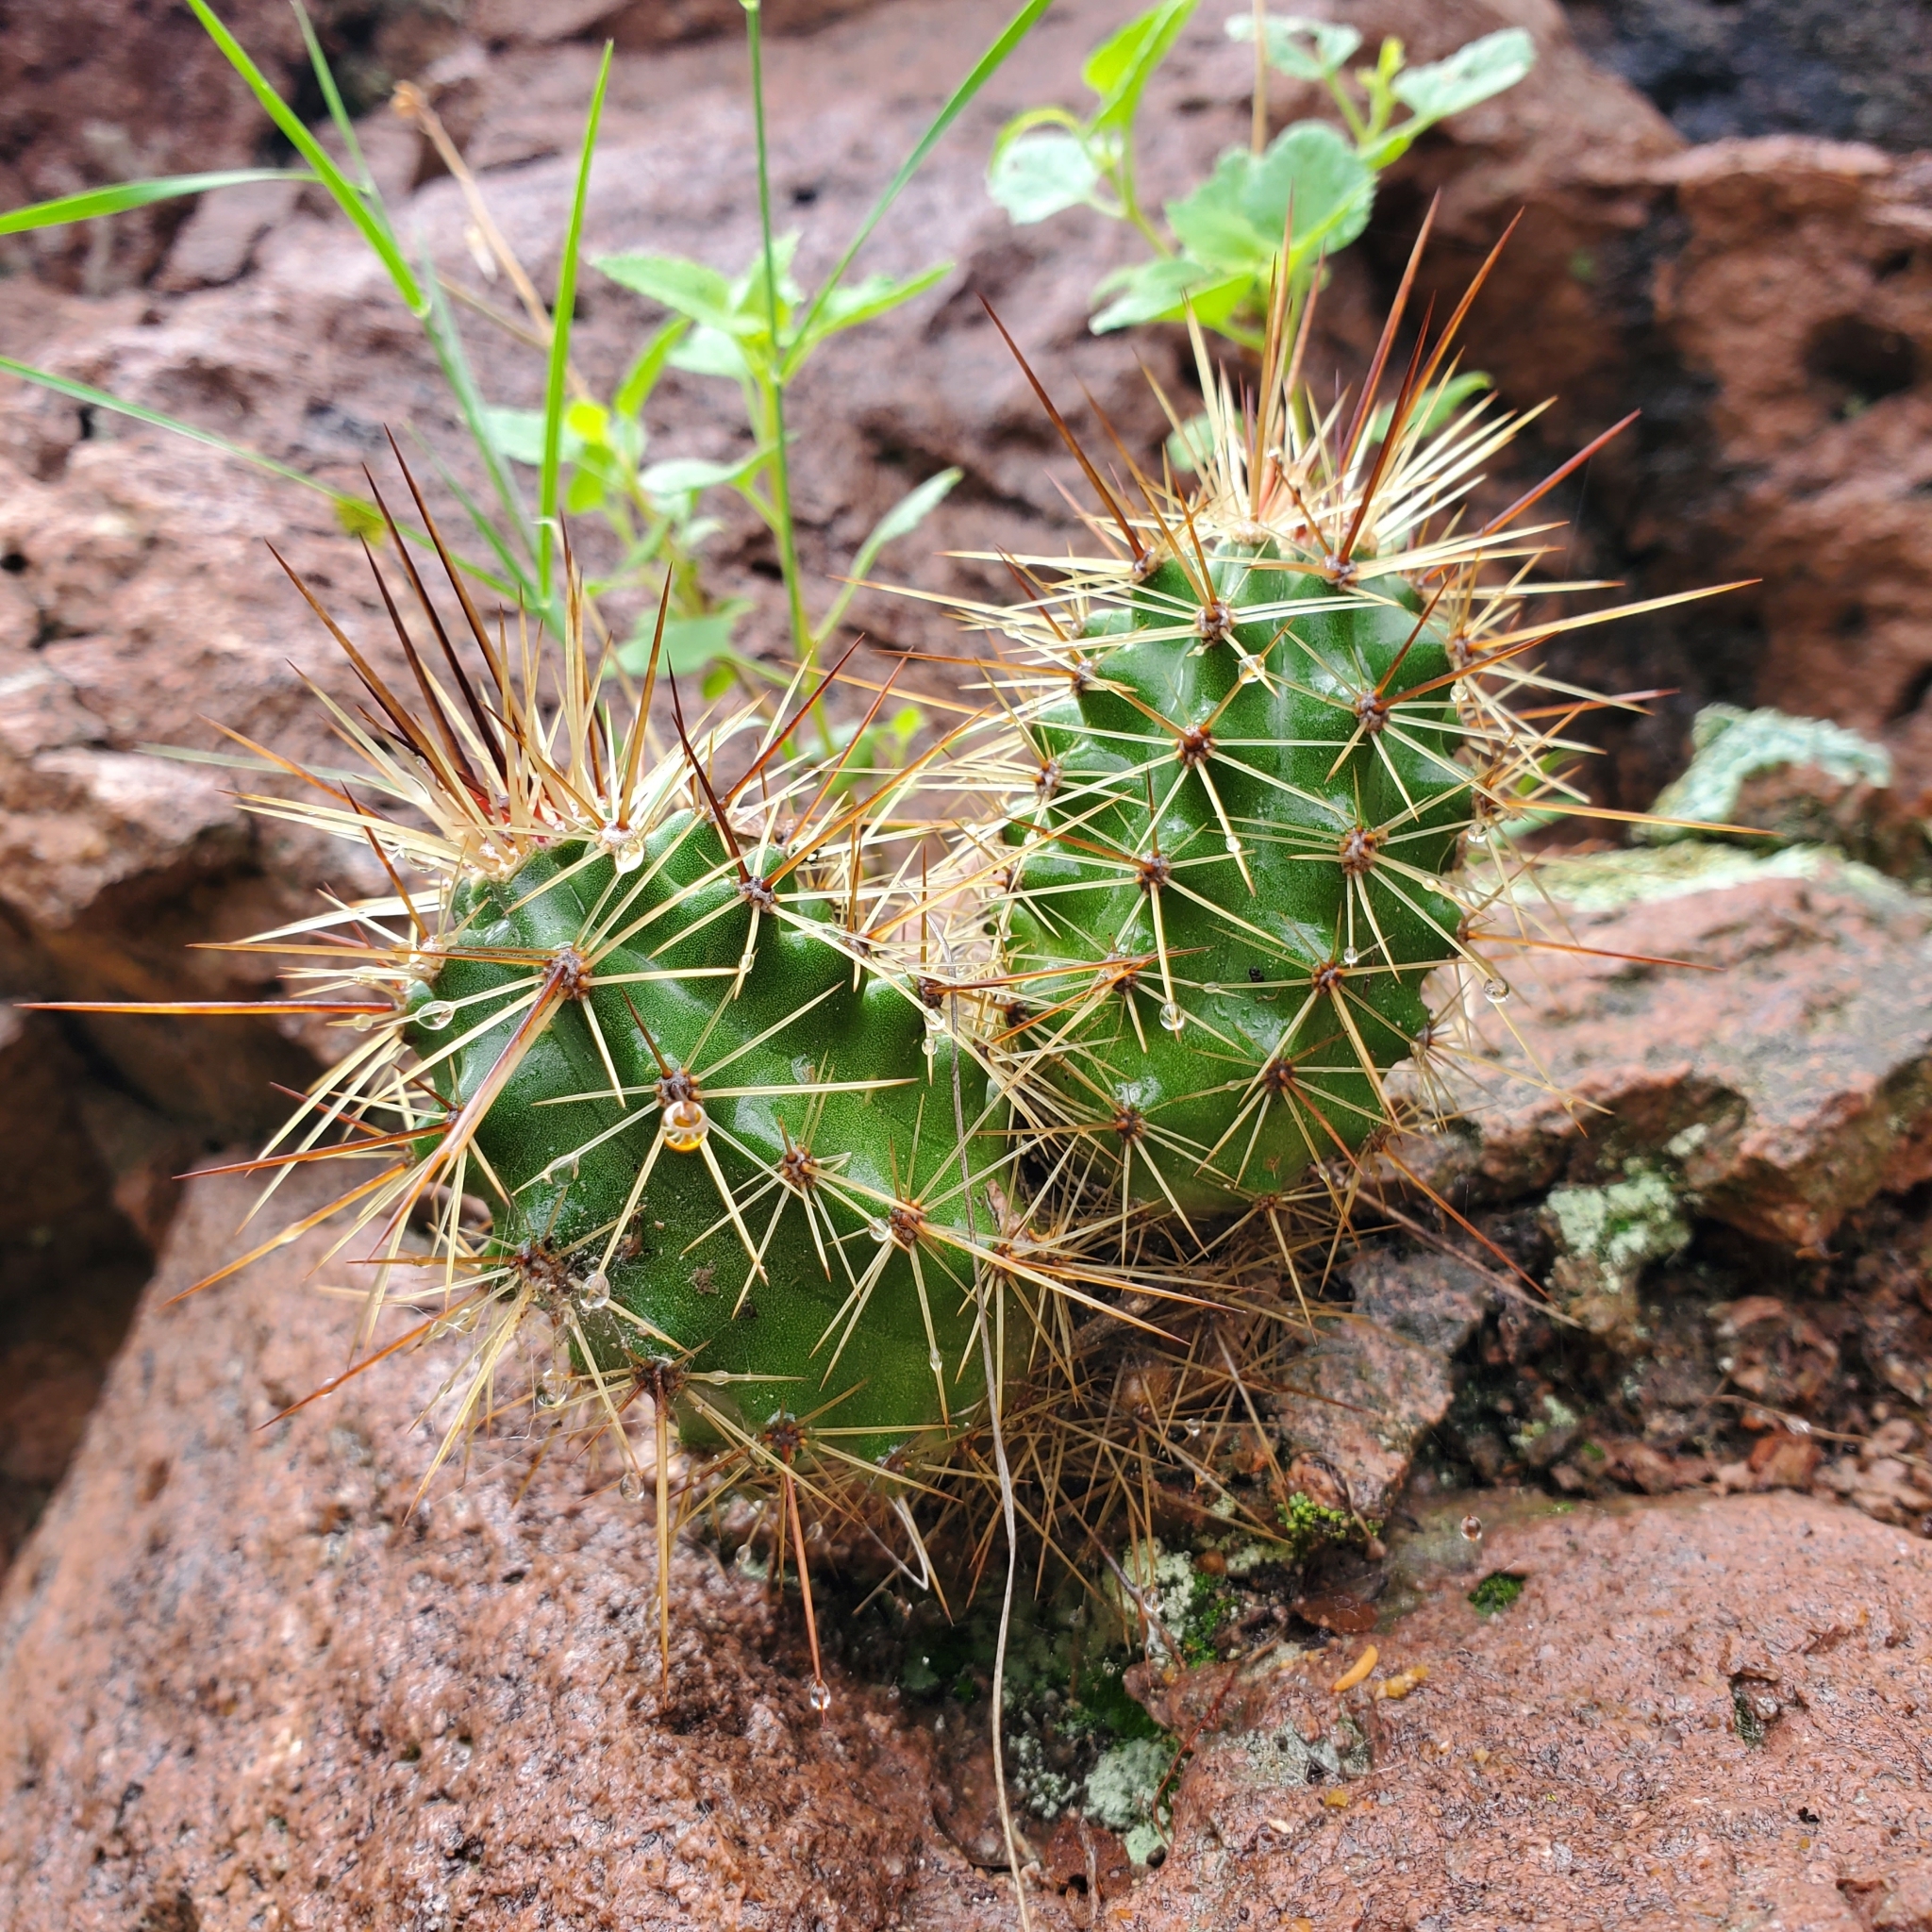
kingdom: Plantae
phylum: Tracheophyta
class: Magnoliopsida
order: Caryophyllales
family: Cactaceae
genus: Echinocereus
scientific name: Echinocereus arizonicus
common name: Arizona hedgehog cactus
